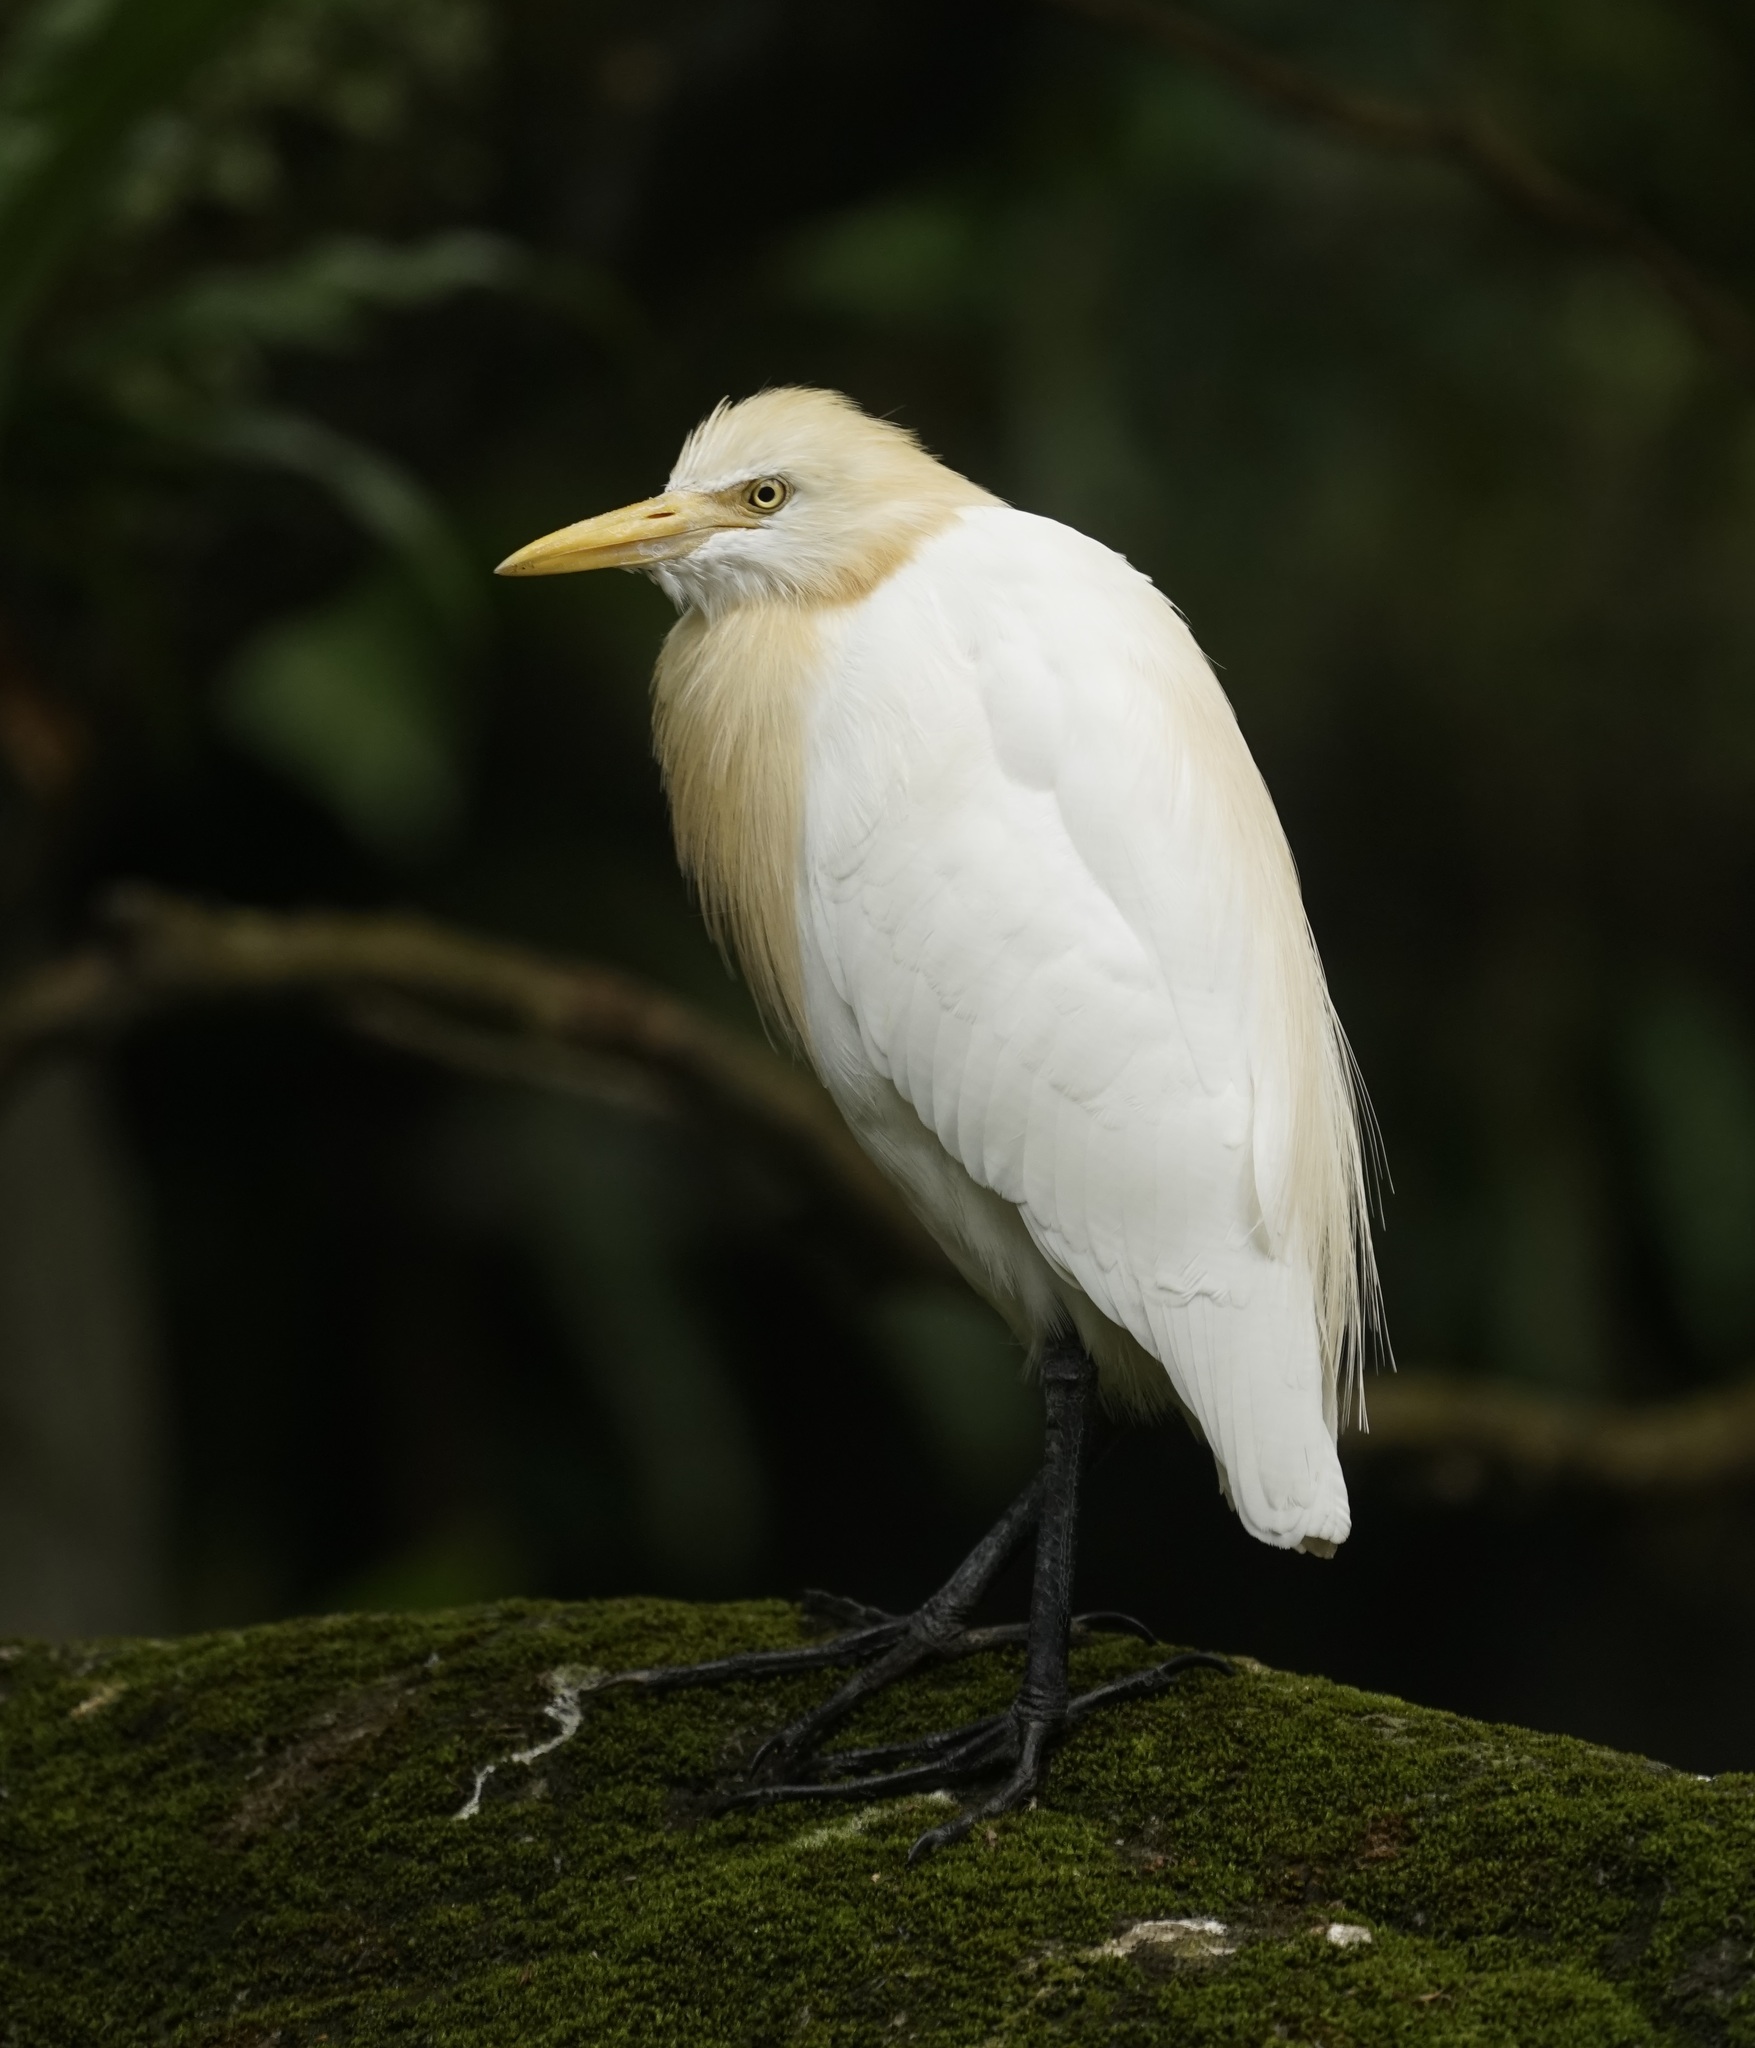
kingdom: Animalia
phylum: Chordata
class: Aves
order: Pelecaniformes
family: Ardeidae
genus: Bubulcus
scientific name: Bubulcus coromandus
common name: Eastern cattle egret
